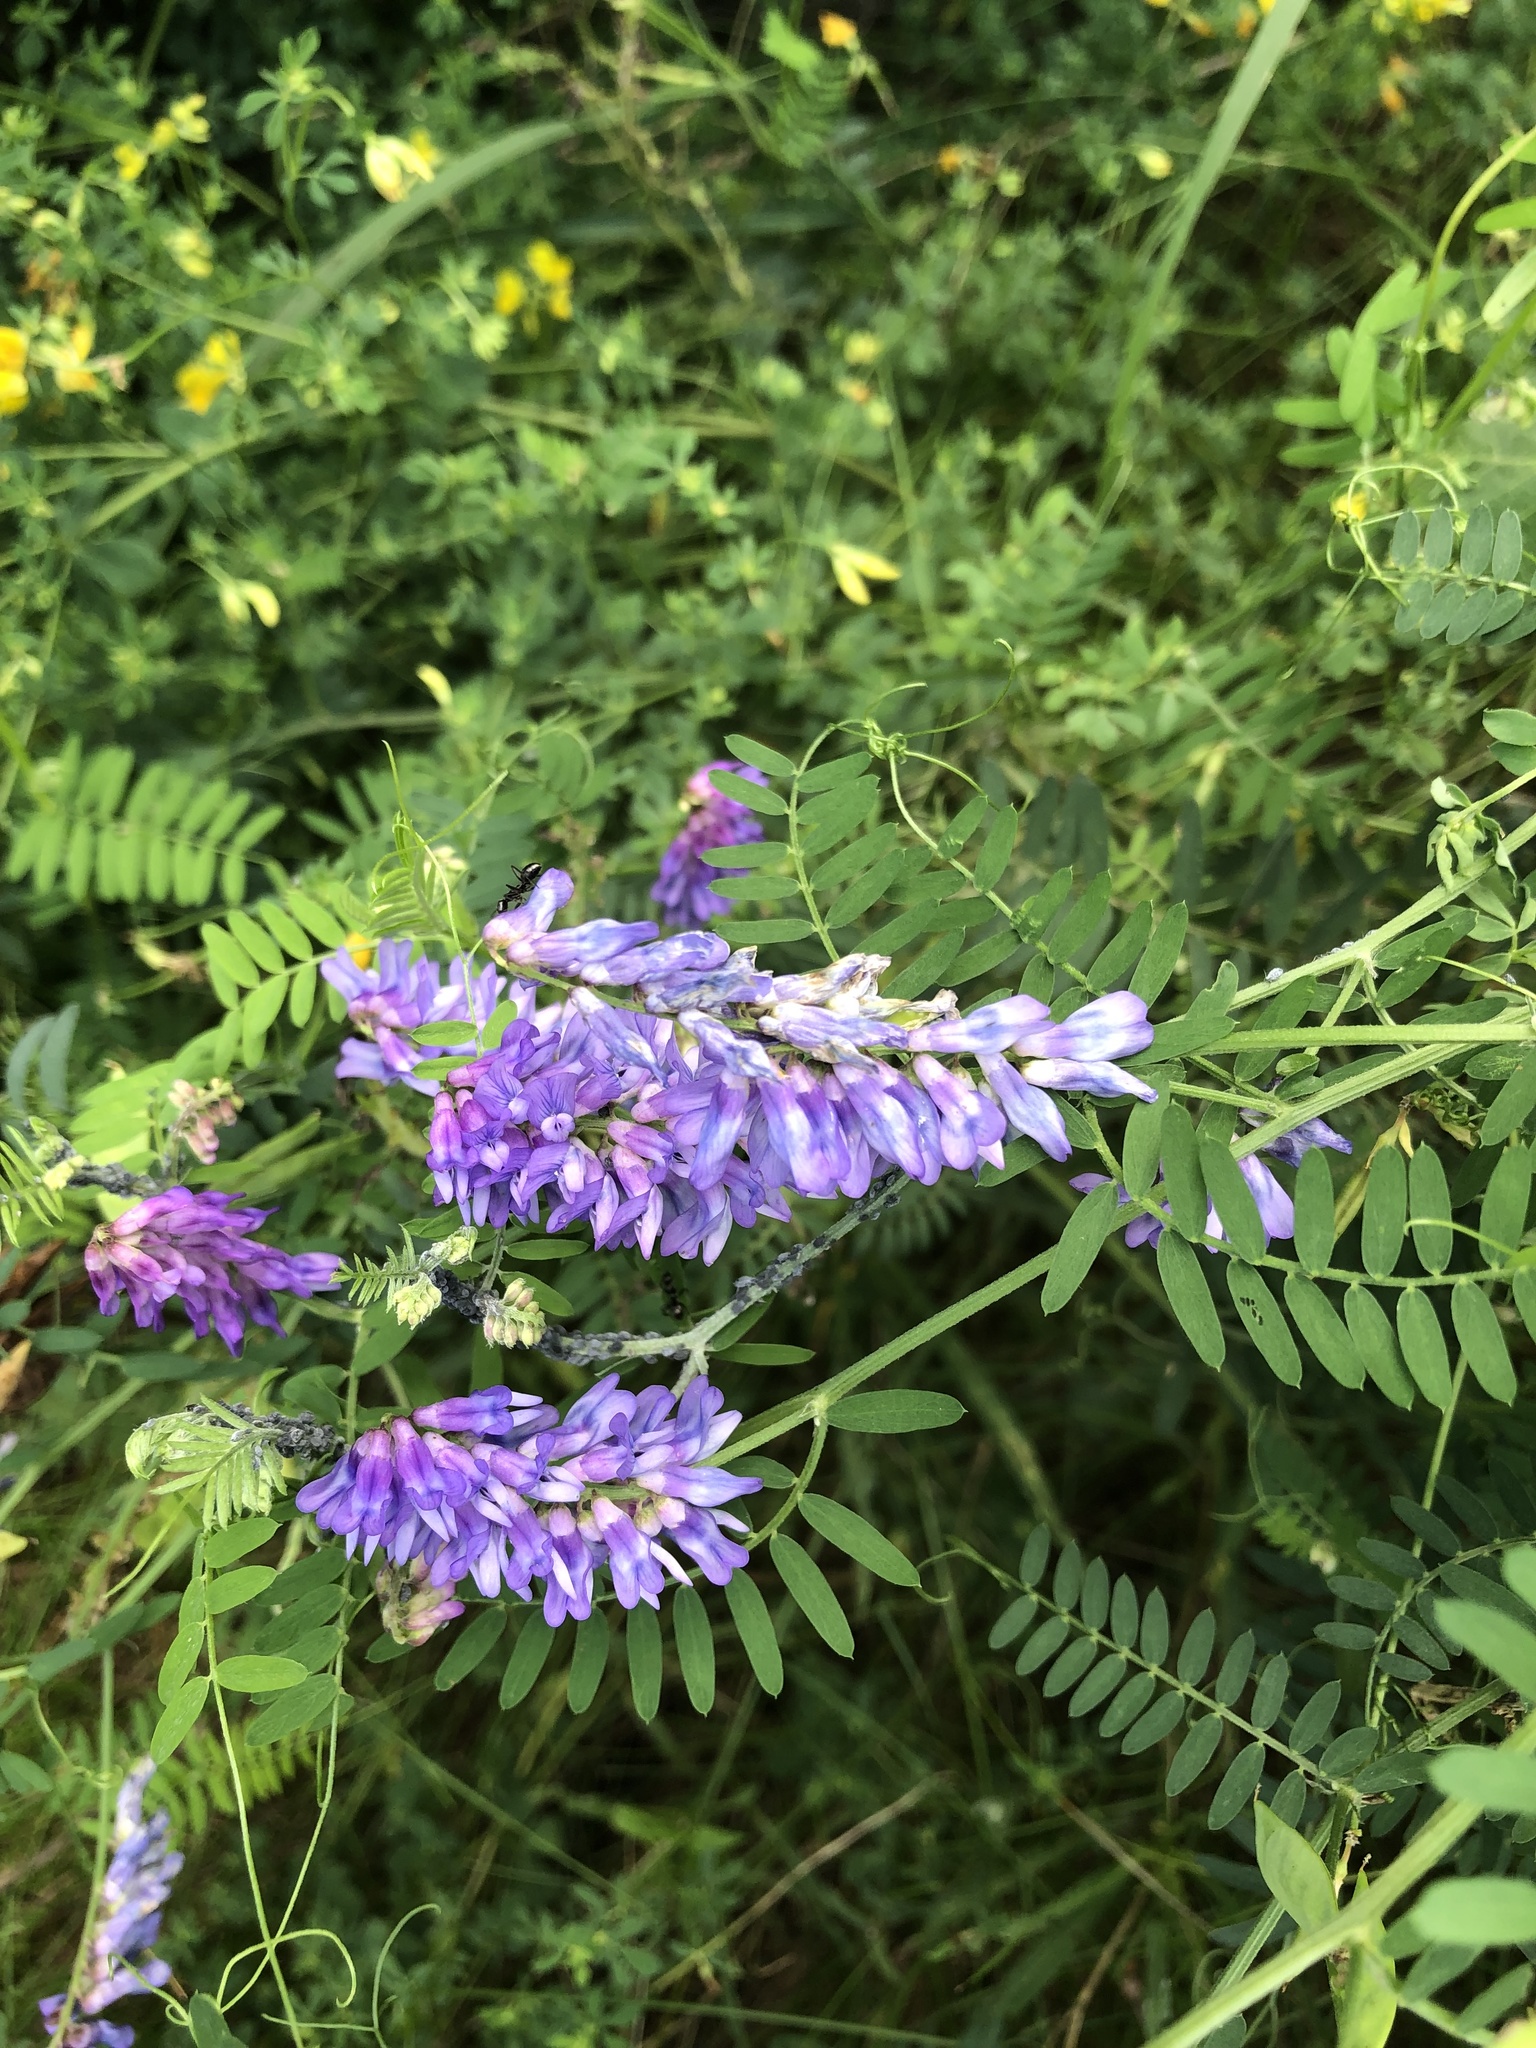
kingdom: Plantae
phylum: Tracheophyta
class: Magnoliopsida
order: Fabales
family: Fabaceae
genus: Vicia
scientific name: Vicia cracca
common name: Bird vetch
